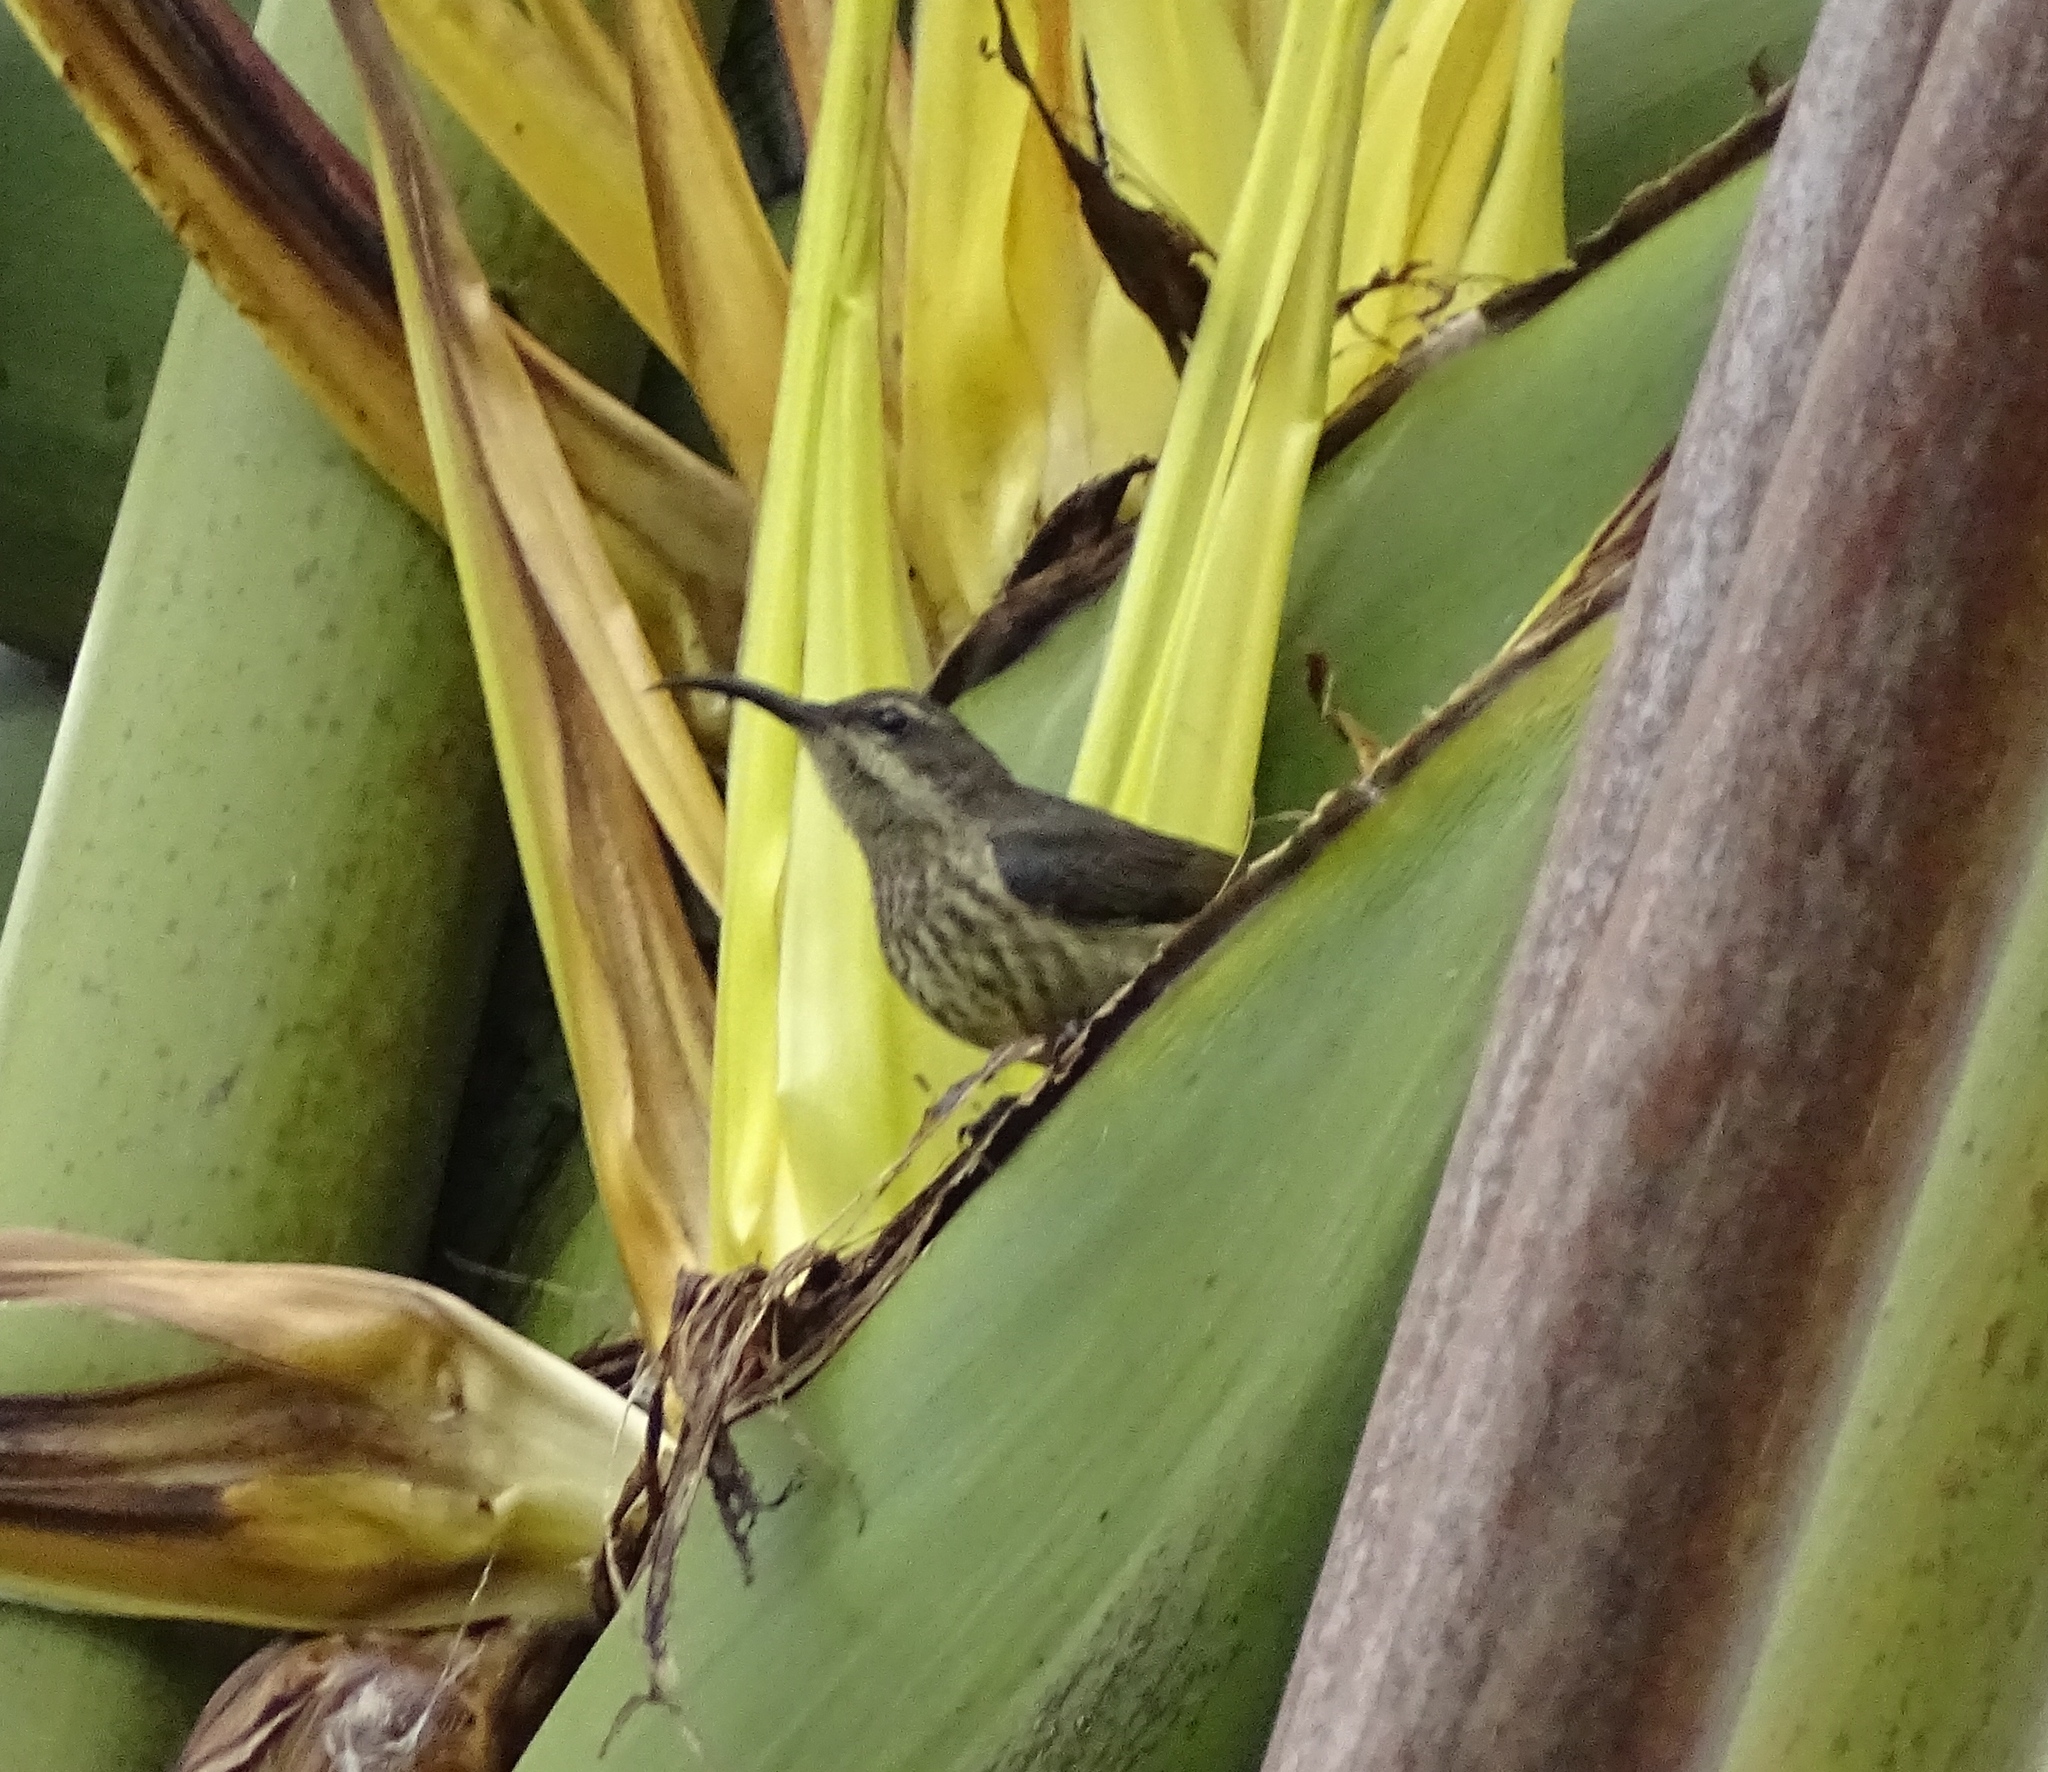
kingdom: Animalia
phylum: Chordata
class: Aves
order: Passeriformes
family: Nectariniidae
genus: Cinnyris
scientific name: Cinnyris notatus
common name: Malagasy green sunbird
